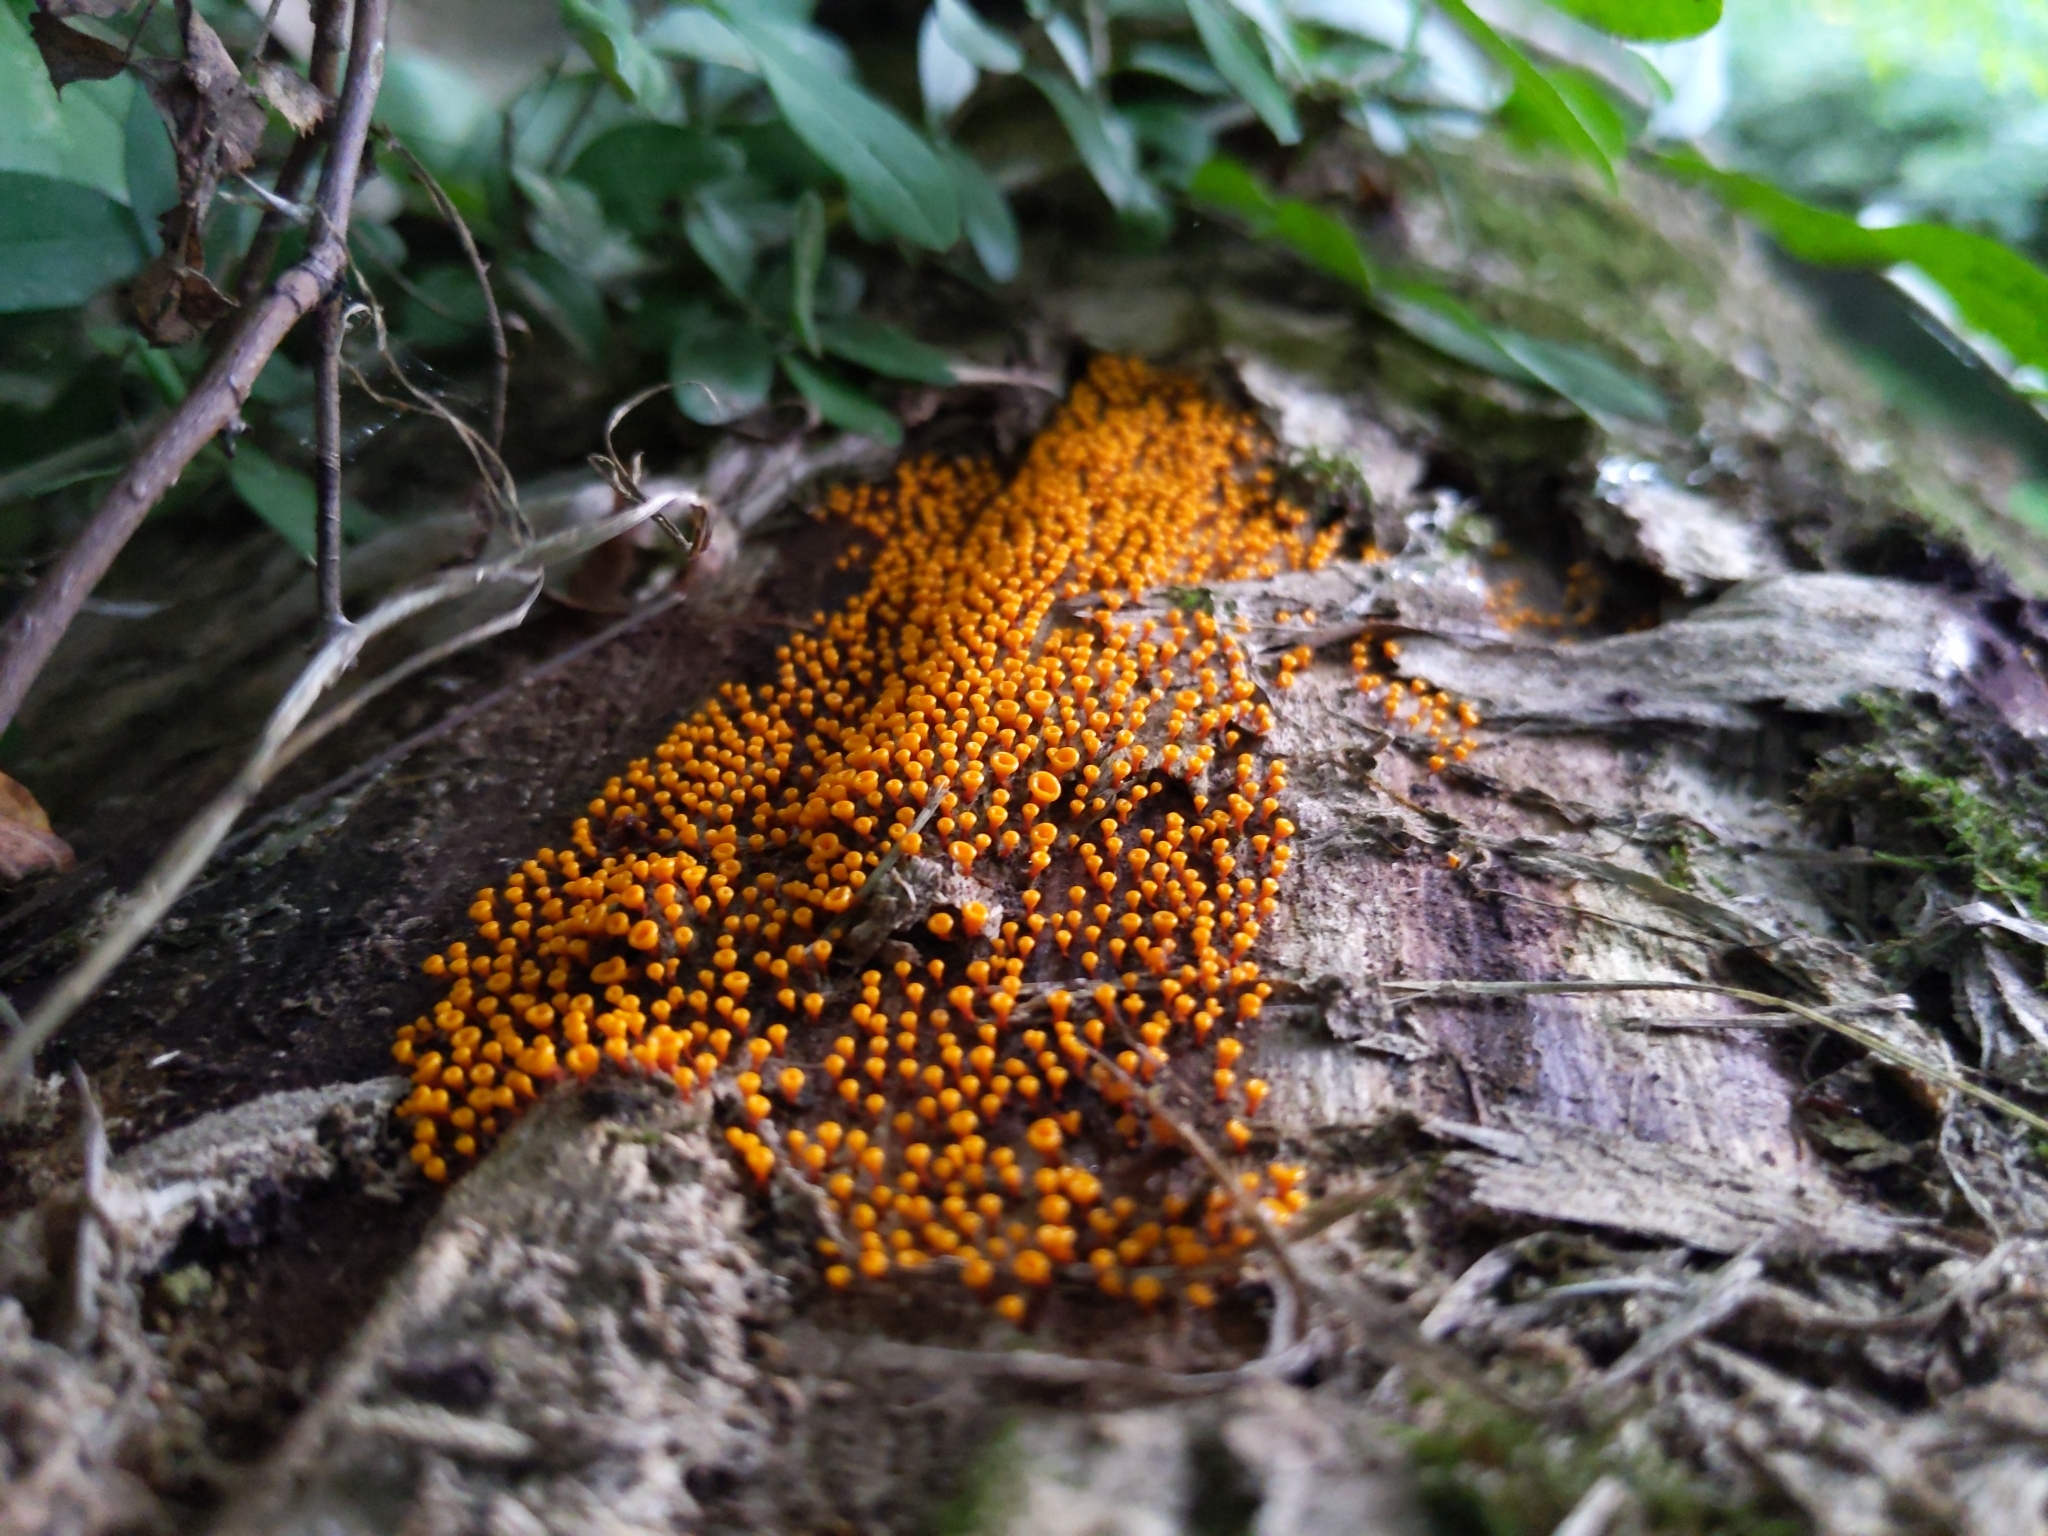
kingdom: Protozoa
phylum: Mycetozoa
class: Myxomycetes
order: Physarales
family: Physaraceae
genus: Physarella
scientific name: Physarella oblonga
